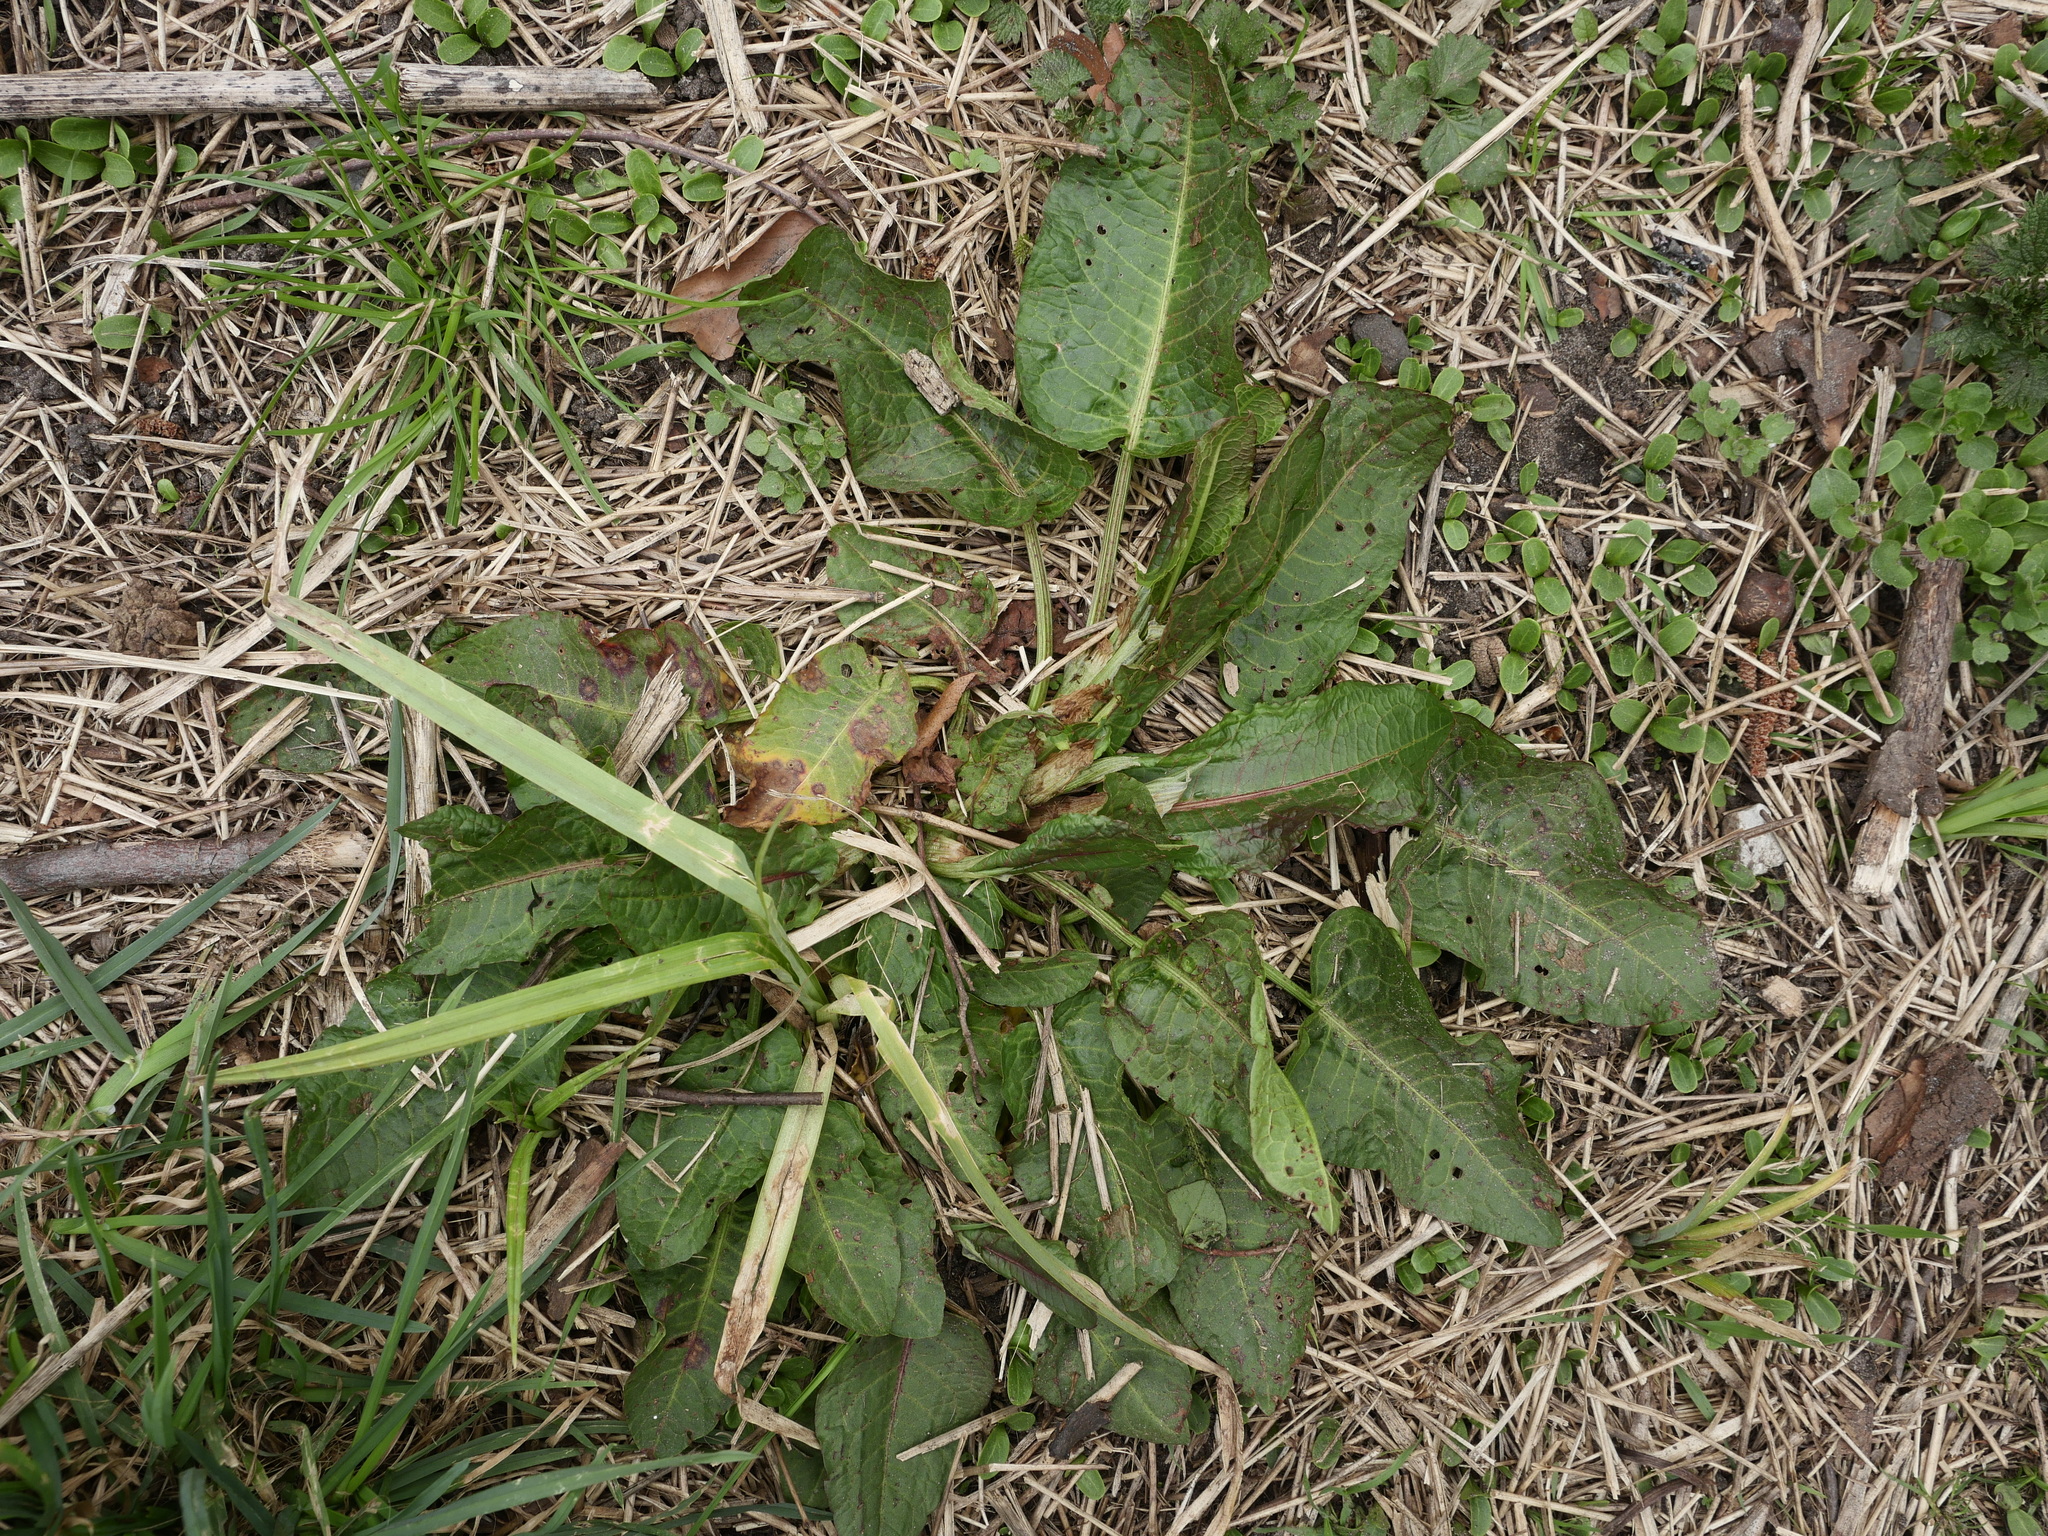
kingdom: Plantae
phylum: Tracheophyta
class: Magnoliopsida
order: Caryophyllales
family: Polygonaceae
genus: Rumex
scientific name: Rumex obtusifolius
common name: Bitter dock
